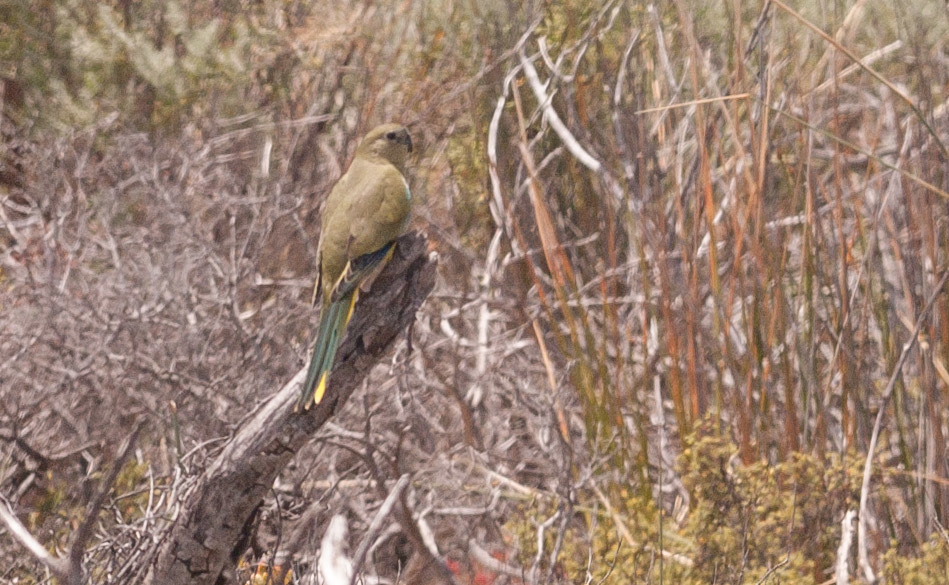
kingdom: Animalia
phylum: Chordata
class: Aves
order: Psittaciformes
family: Psittacidae
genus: Neophema
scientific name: Neophema petrophila
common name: Rock parrot
